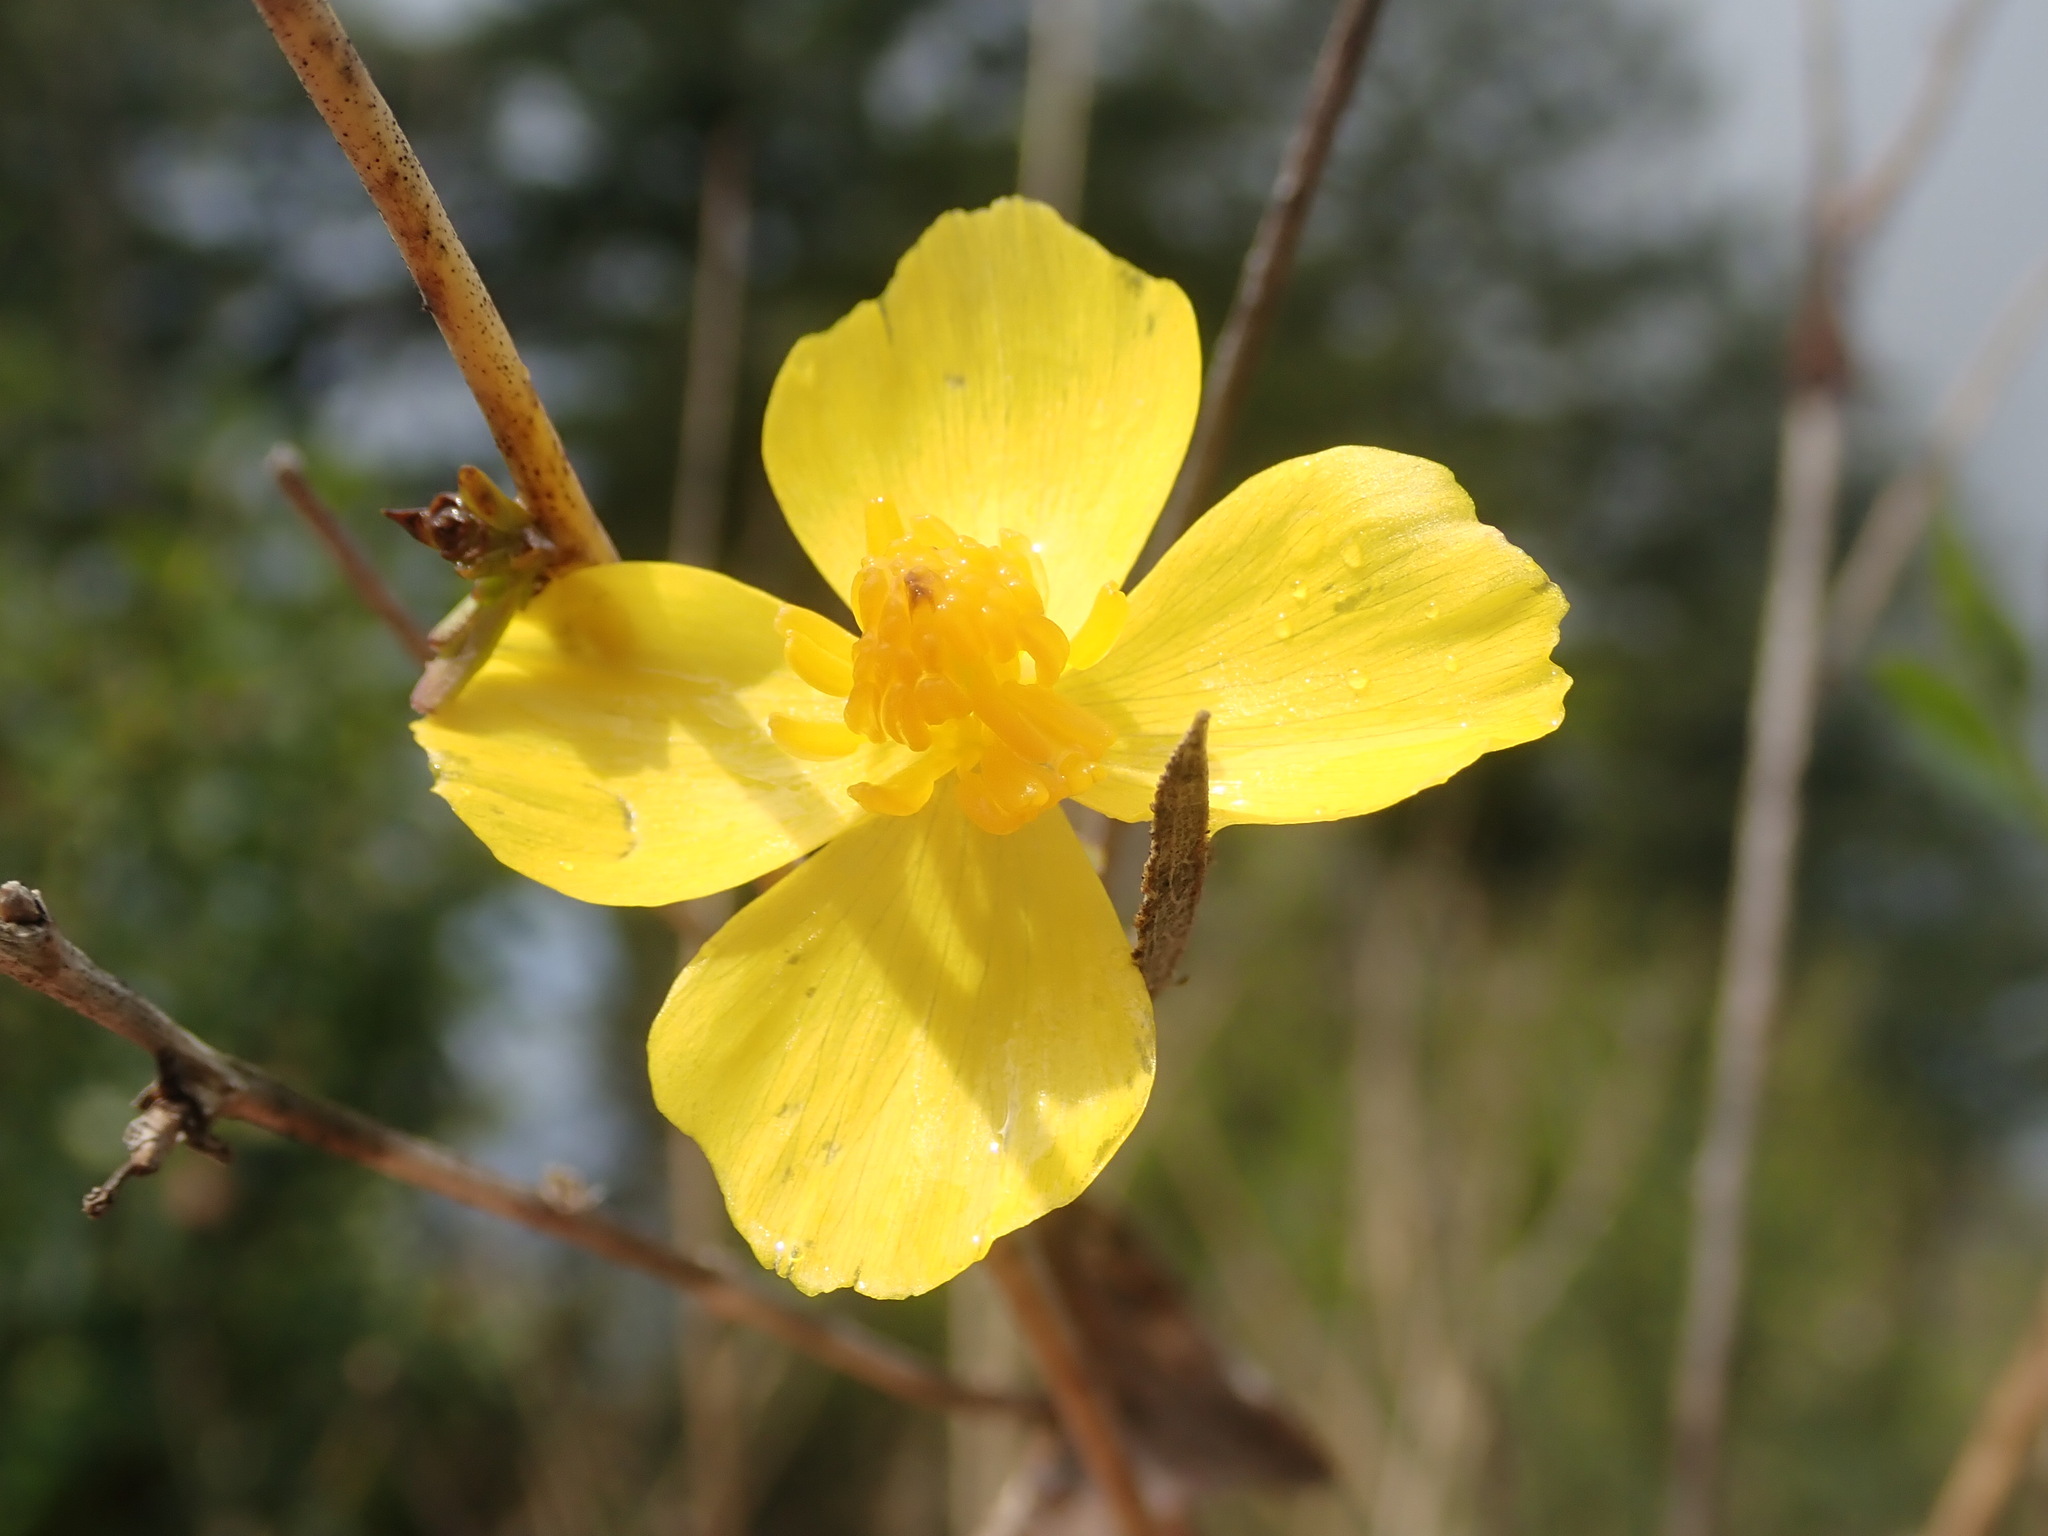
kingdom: Plantae
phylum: Tracheophyta
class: Magnoliopsida
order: Ranunculales
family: Papaveraceae
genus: Dendromecon
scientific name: Dendromecon rigida
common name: Tree poppy
